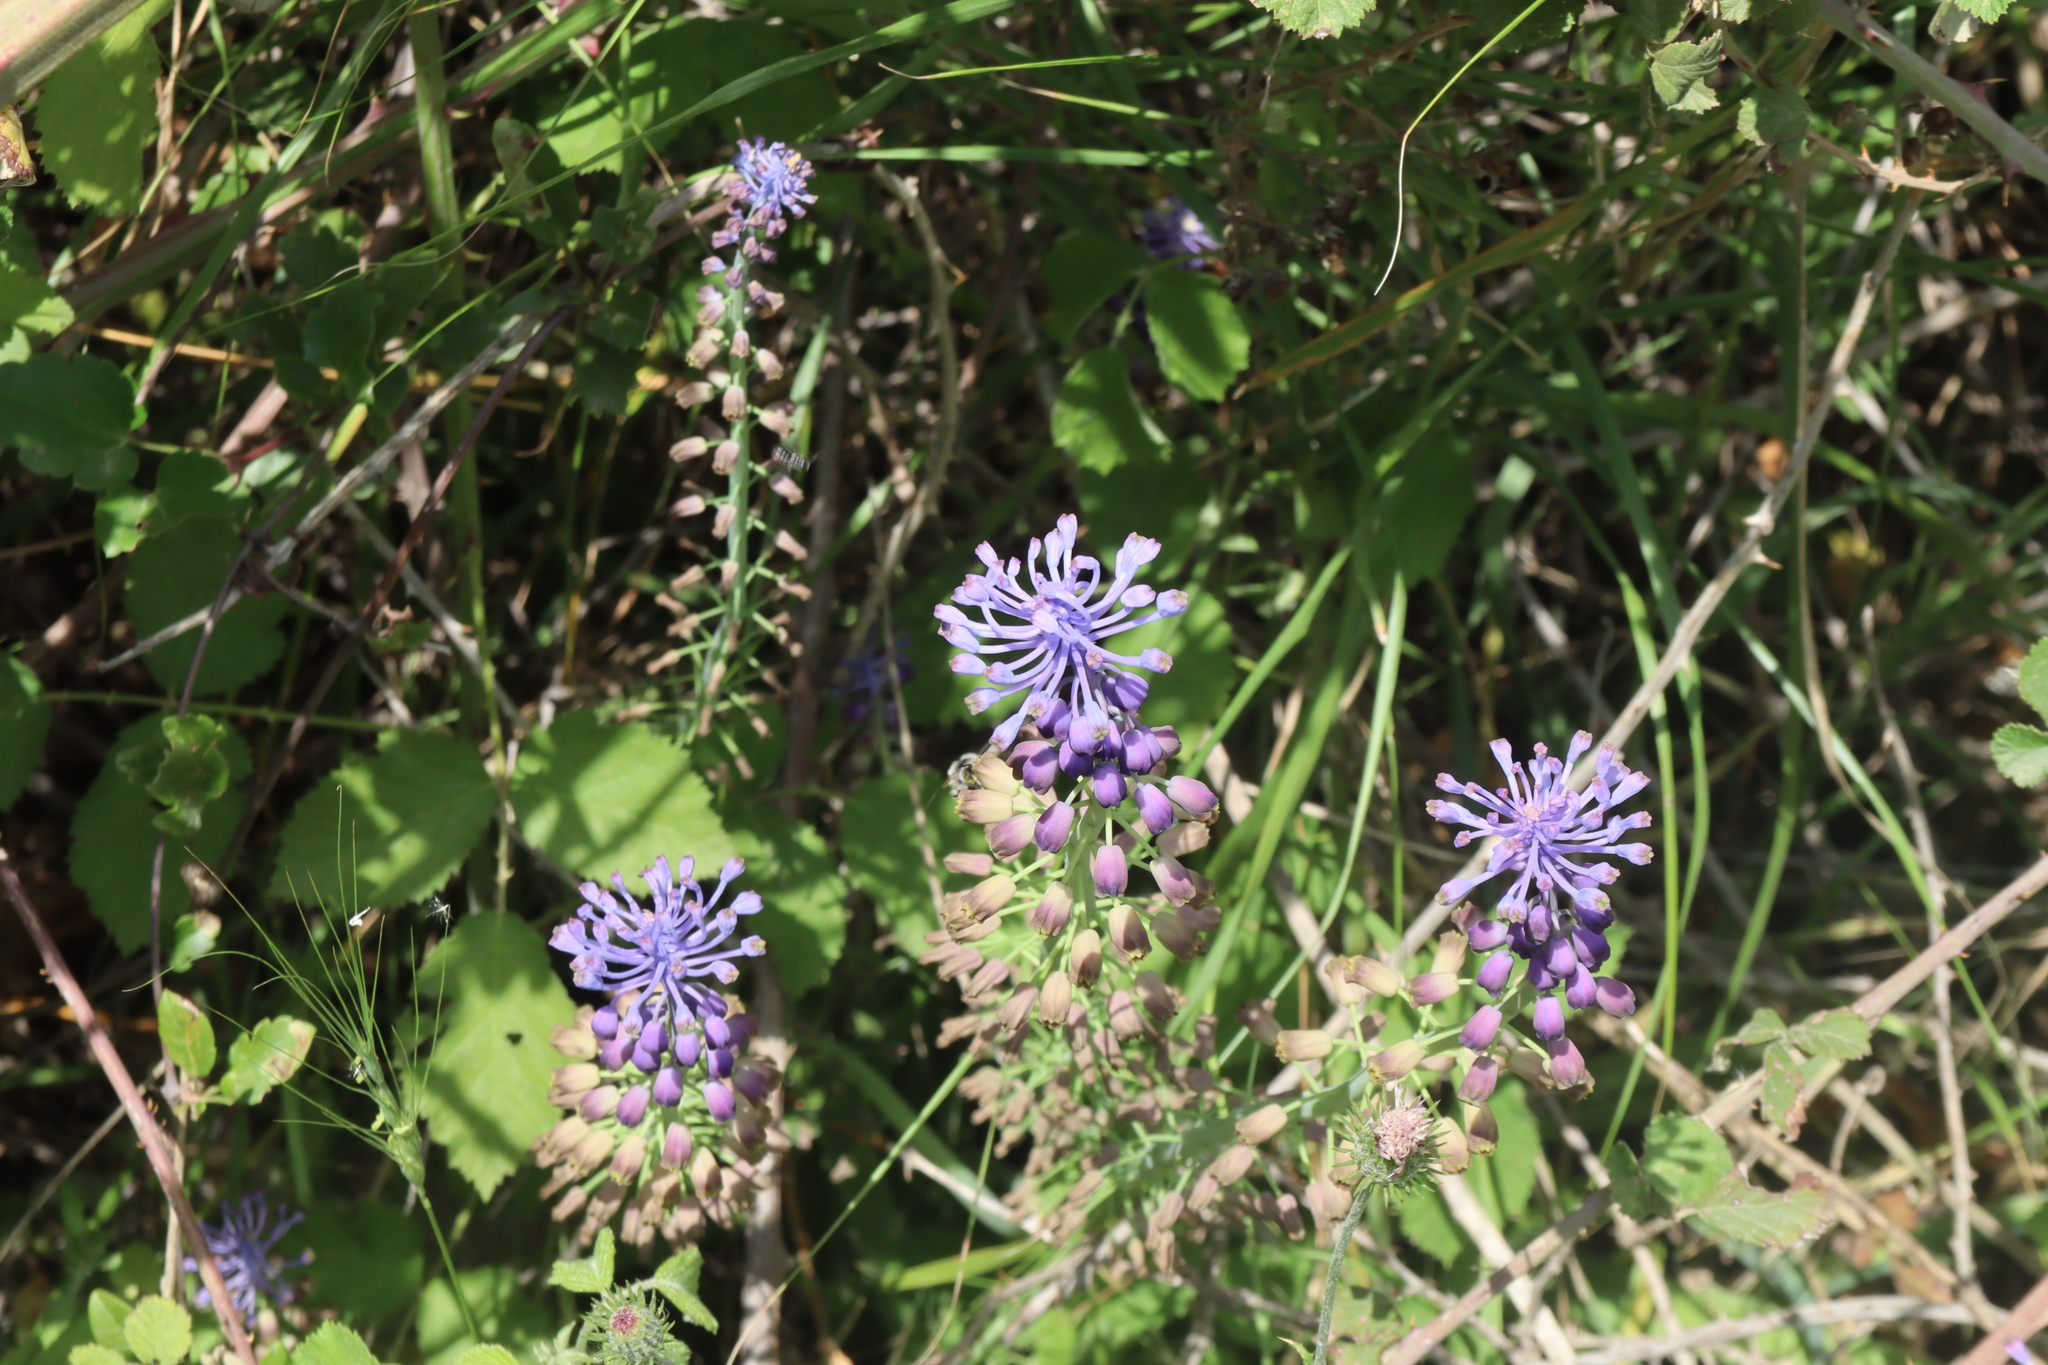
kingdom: Plantae
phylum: Tracheophyta
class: Liliopsida
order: Asparagales
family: Asparagaceae
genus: Muscari
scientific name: Muscari comosum
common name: Tassel hyacinth
